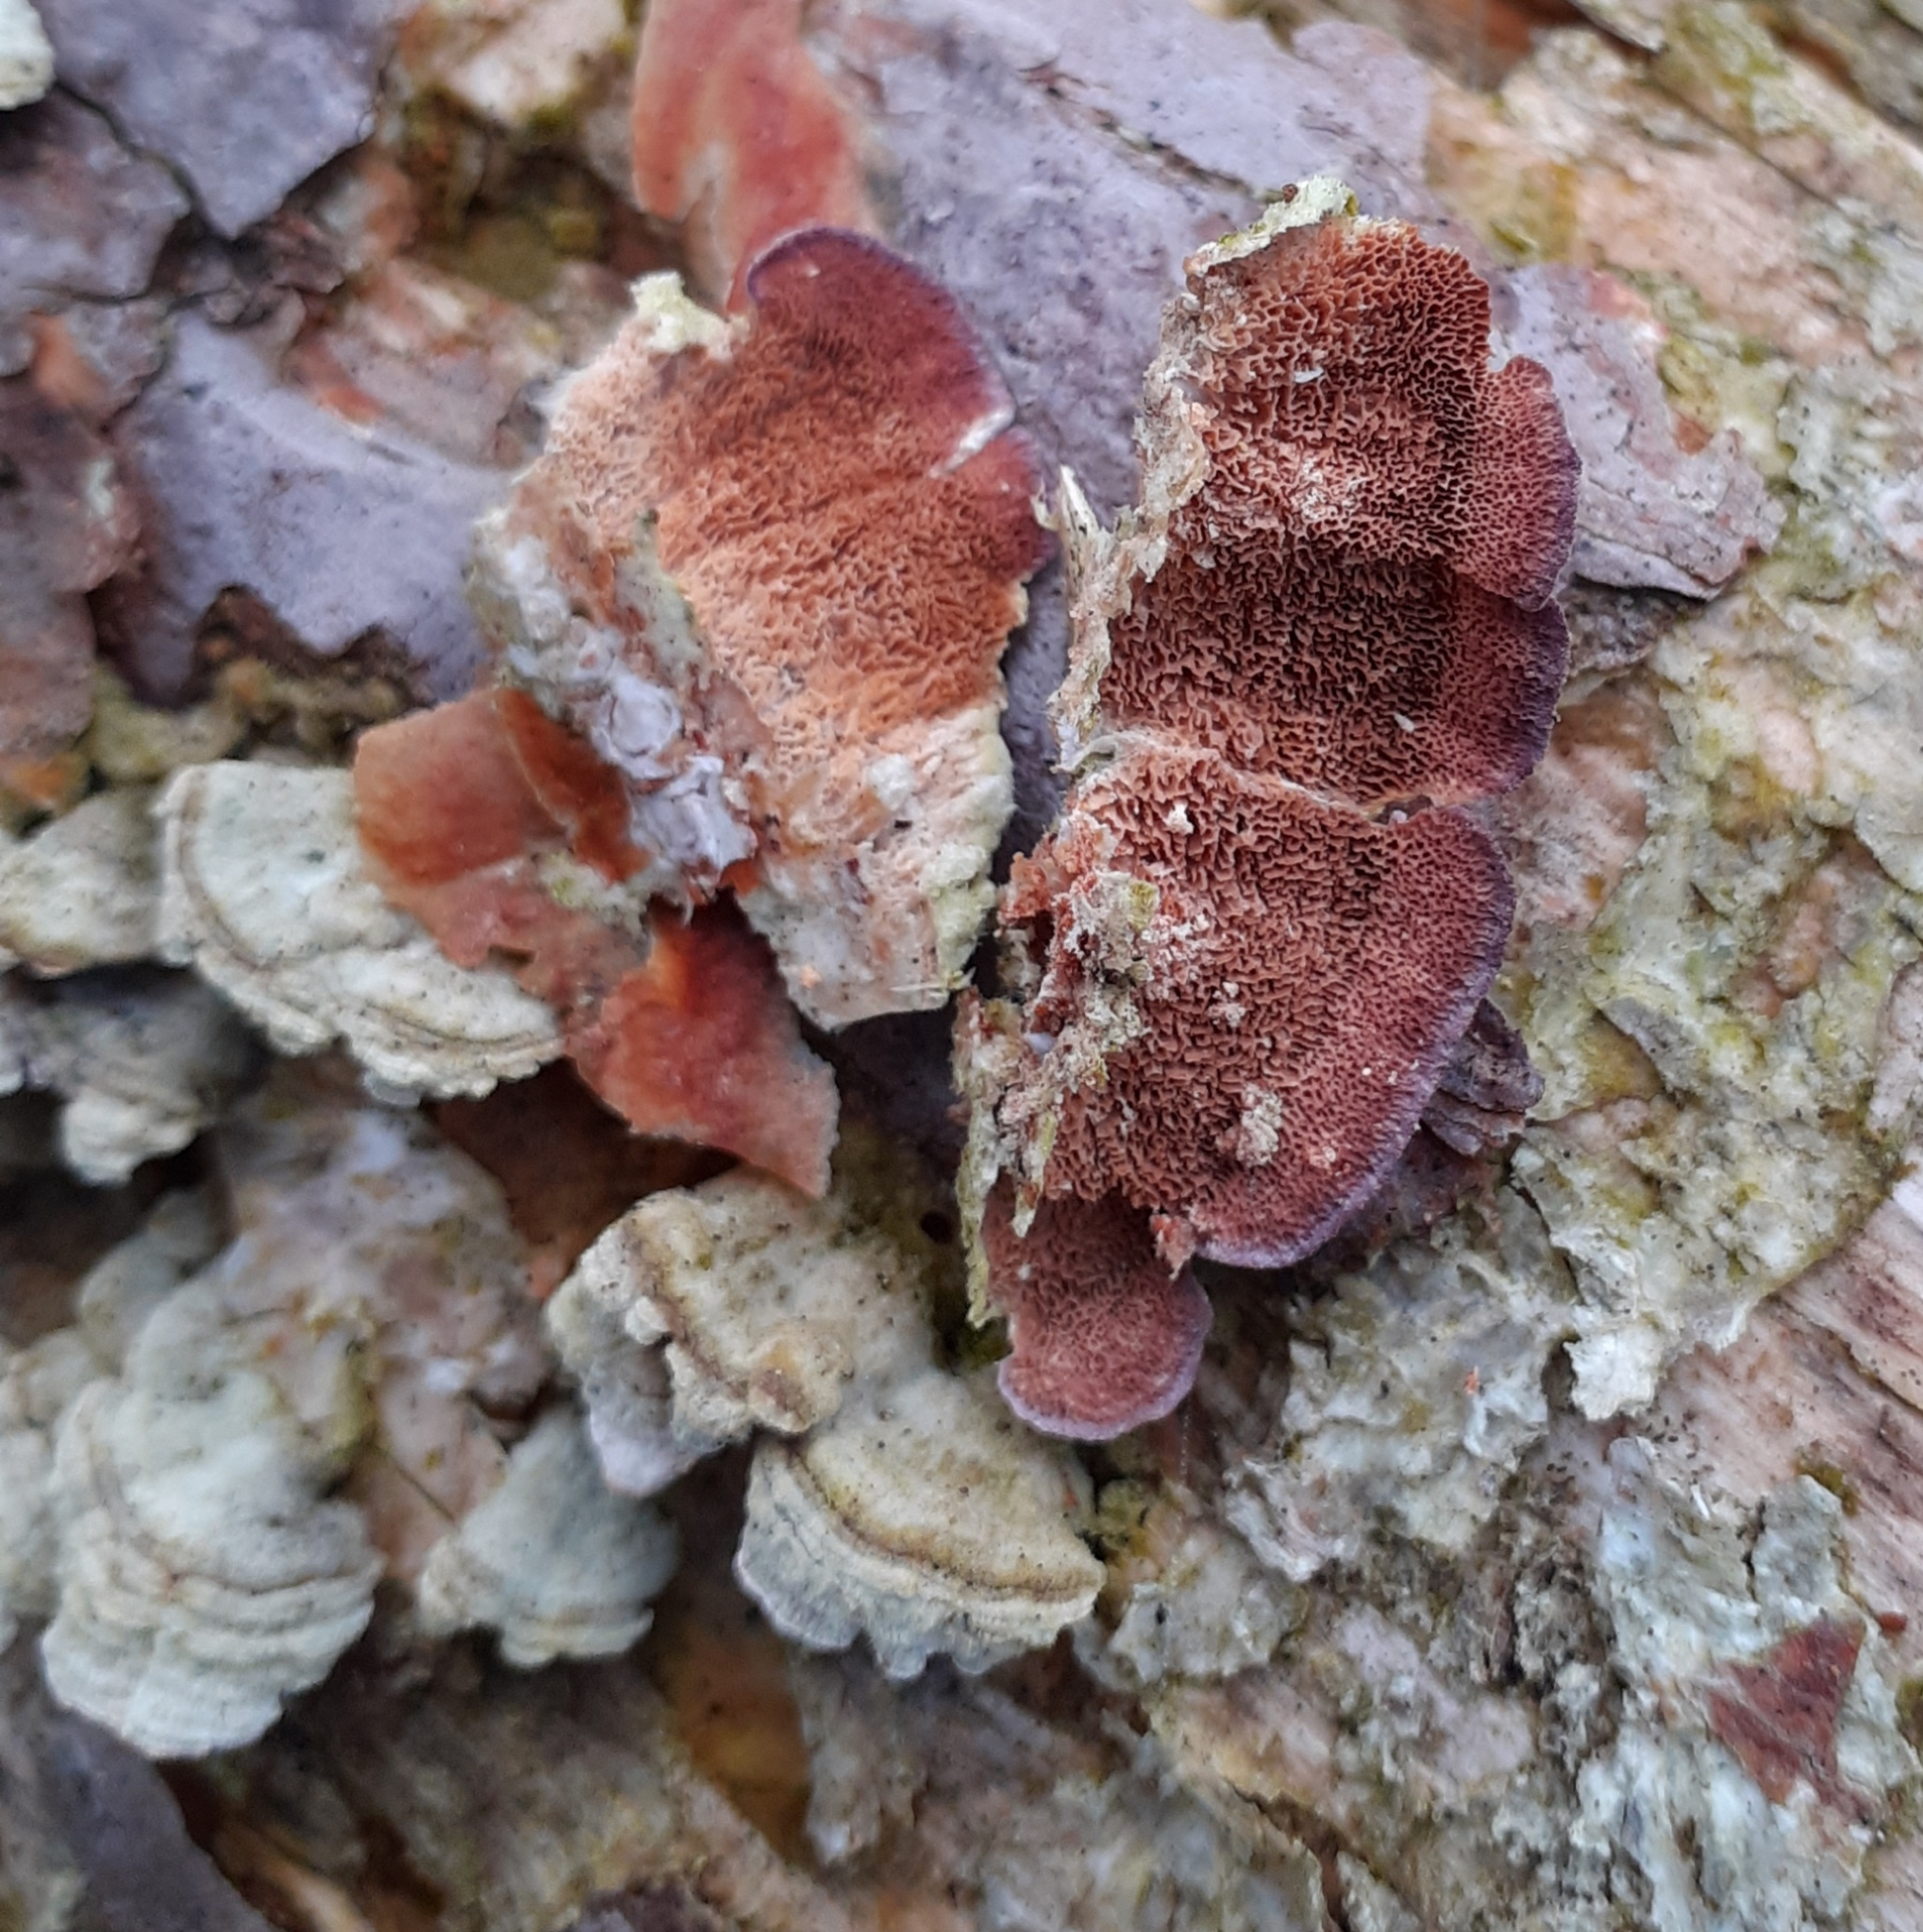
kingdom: Fungi
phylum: Basidiomycota
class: Agaricomycetes
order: Hymenochaetales
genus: Trichaptum
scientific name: Trichaptum abietinum
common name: Purplepore bracket
